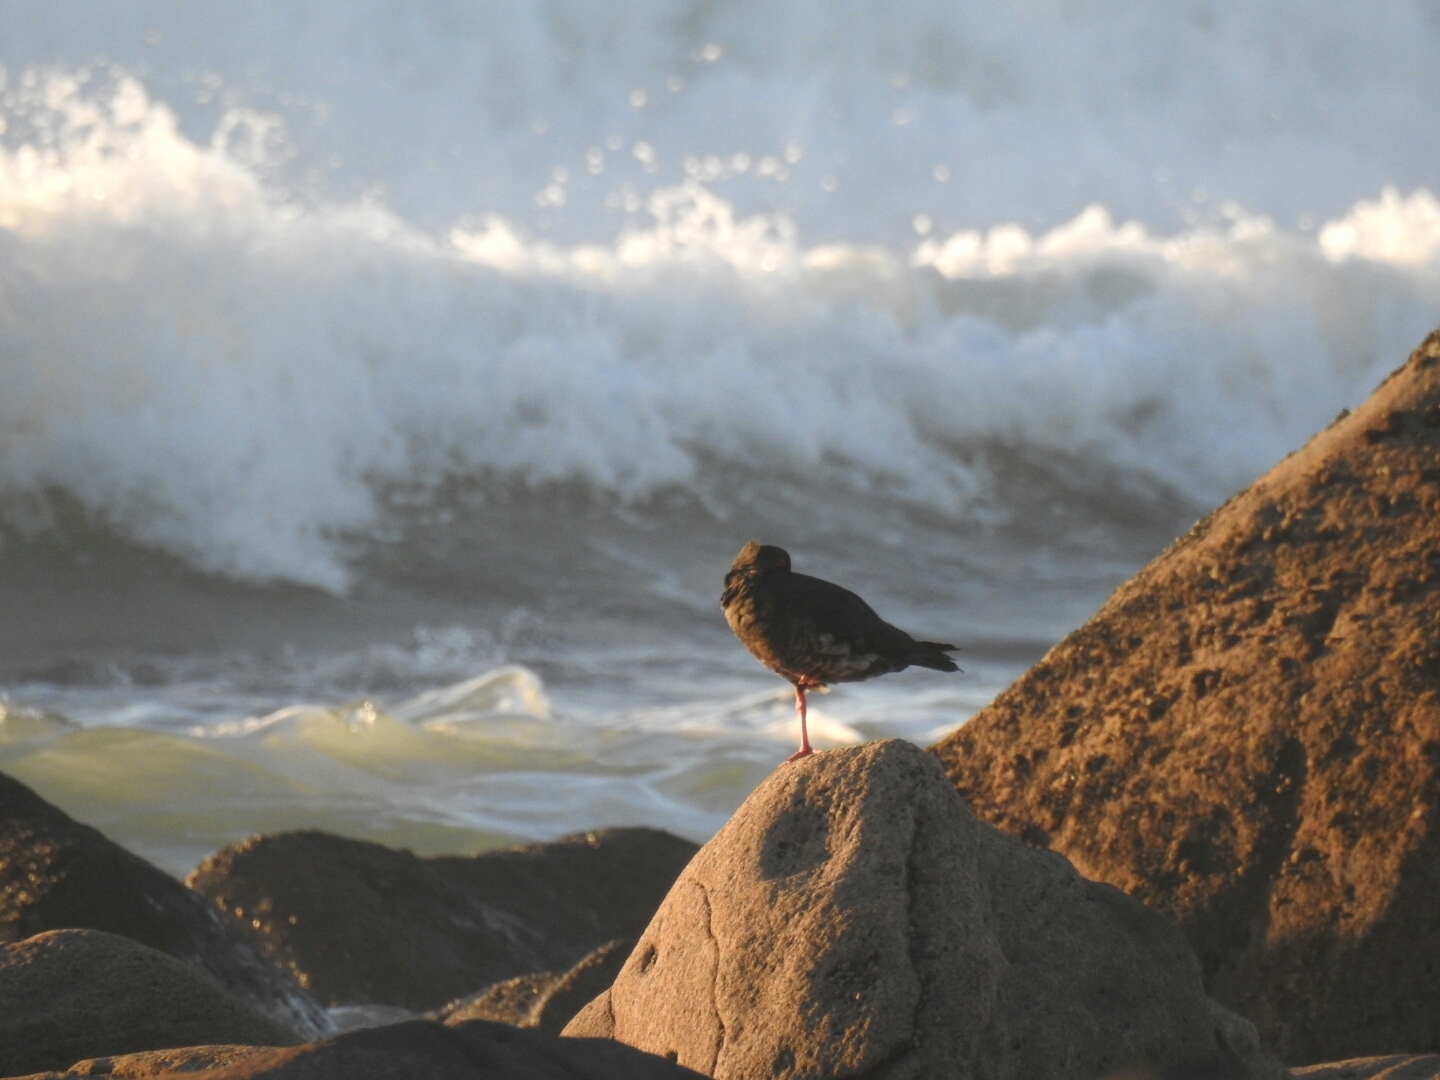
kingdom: Animalia
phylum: Chordata
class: Aves
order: Charadriiformes
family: Haematopodidae
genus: Haematopus
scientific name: Haematopus unicolor
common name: Variable oystercatcher
